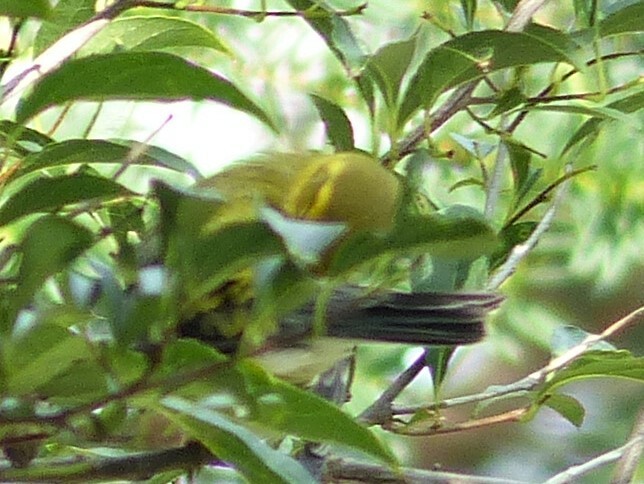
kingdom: Animalia
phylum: Chordata
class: Aves
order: Passeriformes
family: Parulidae
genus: Setophaga
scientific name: Setophaga virens
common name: Black-throated green warbler
